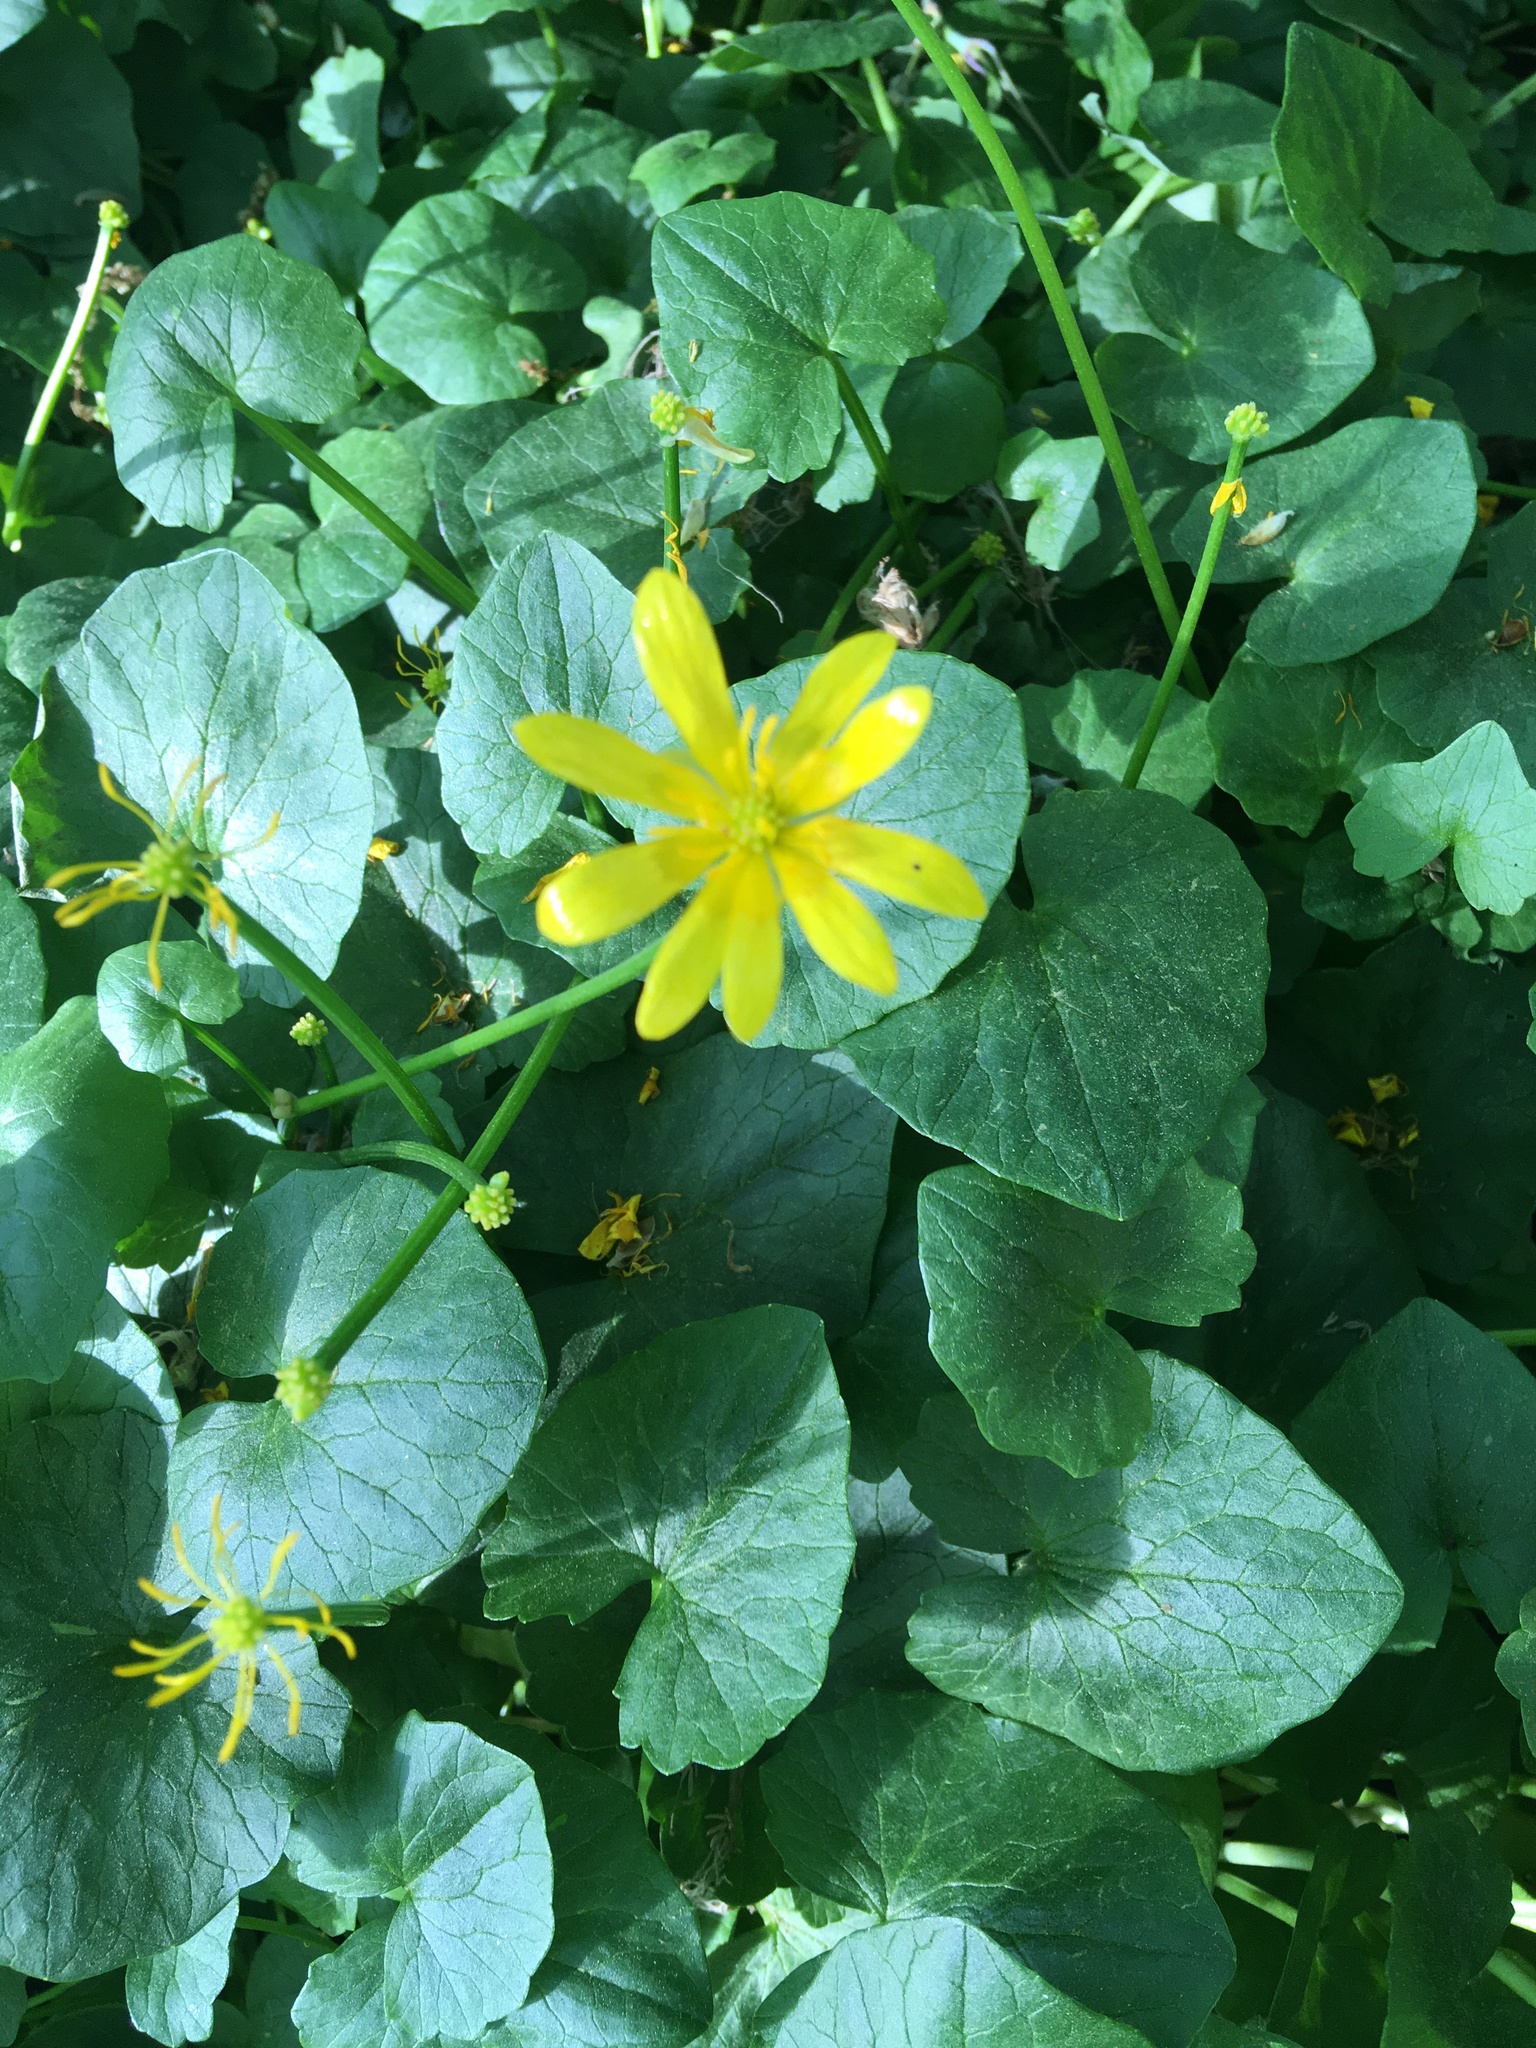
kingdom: Plantae
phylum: Tracheophyta
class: Magnoliopsida
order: Ranunculales
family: Ranunculaceae
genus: Ficaria
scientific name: Ficaria verna
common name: Lesser celandine
